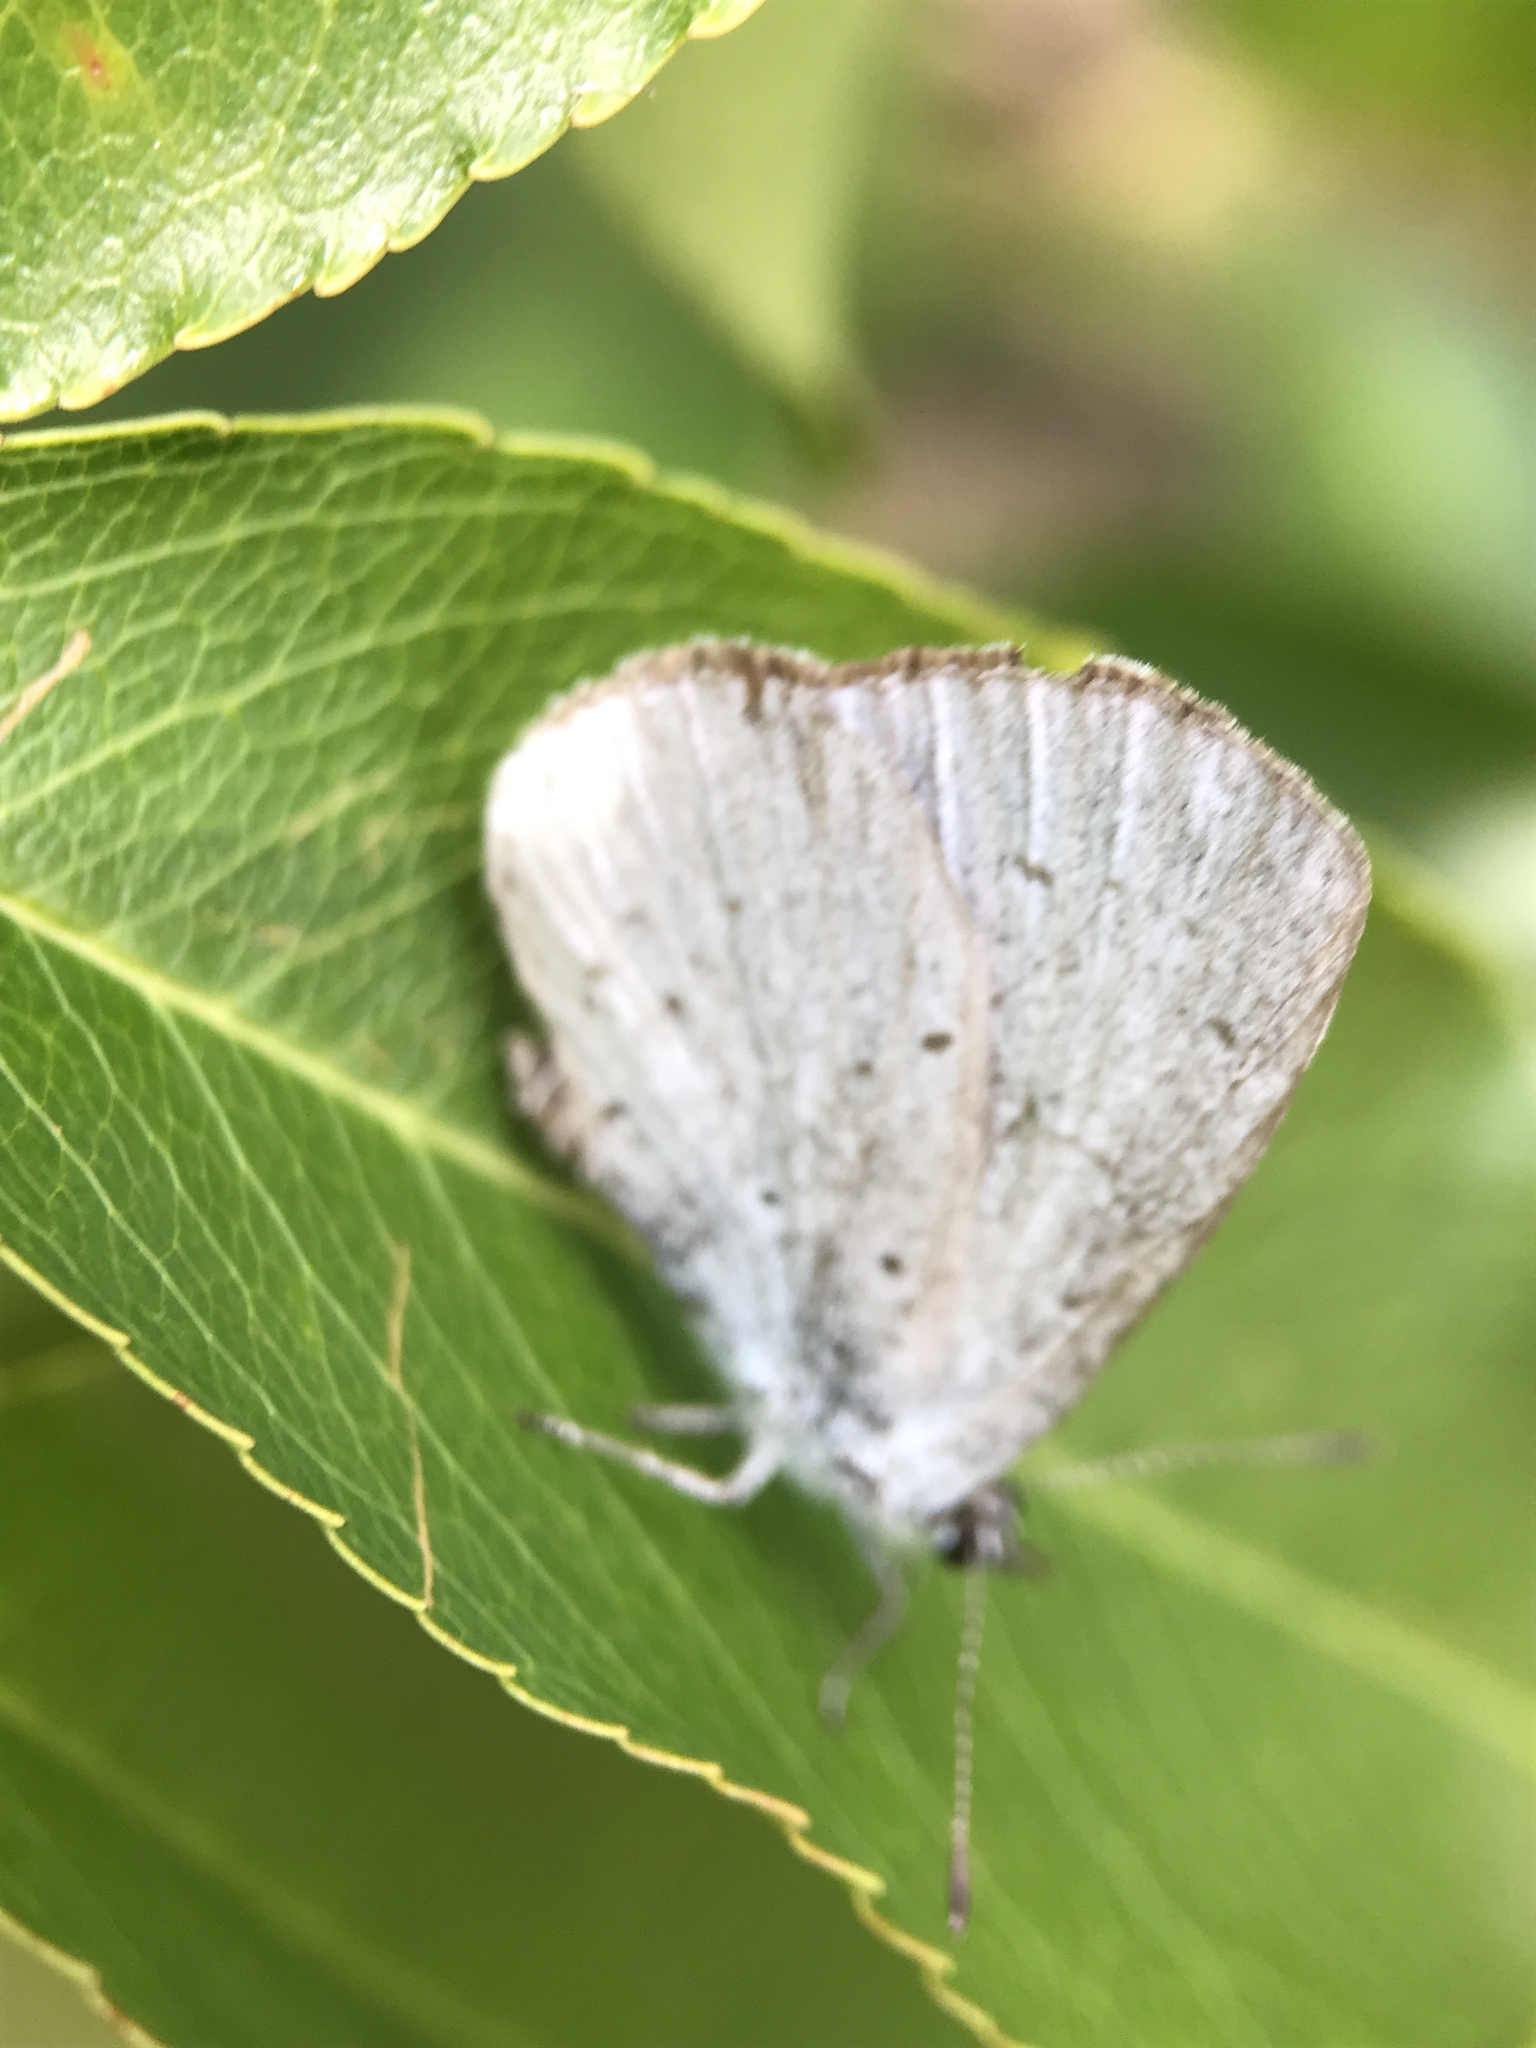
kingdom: Animalia
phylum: Arthropoda
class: Insecta
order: Lepidoptera
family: Lycaenidae
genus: Celastrina
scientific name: Celastrina argiolus
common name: Holly blue
